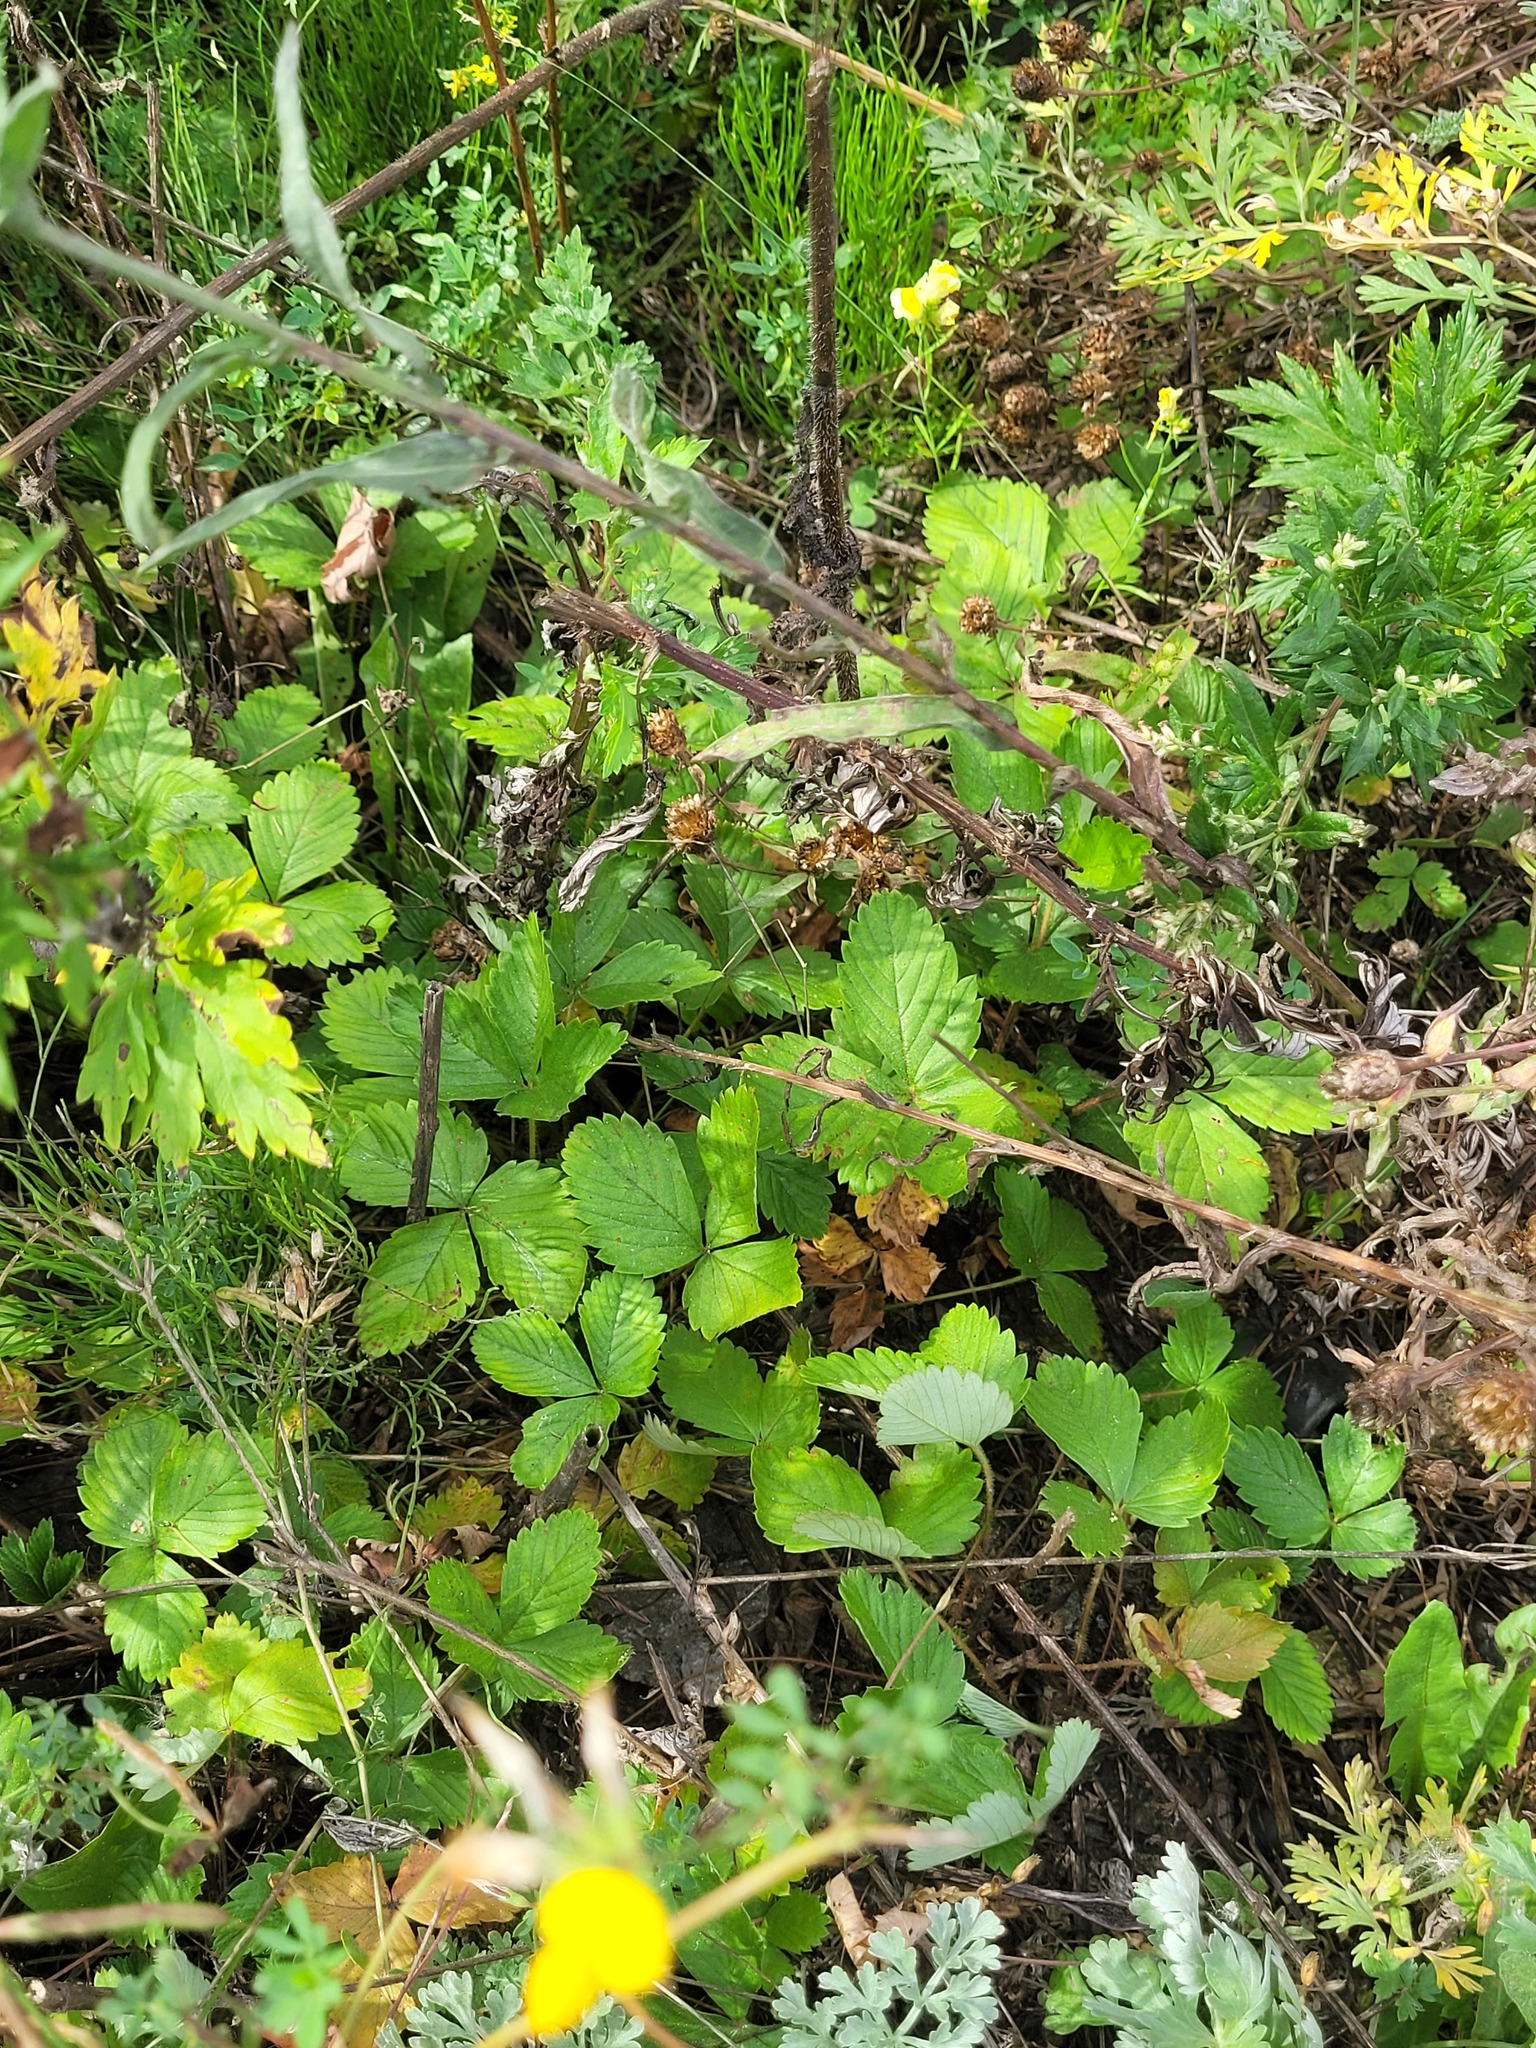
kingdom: Plantae
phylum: Tracheophyta
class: Magnoliopsida
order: Rosales
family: Rosaceae
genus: Fragaria
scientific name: Fragaria vesca
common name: Wild strawberry
